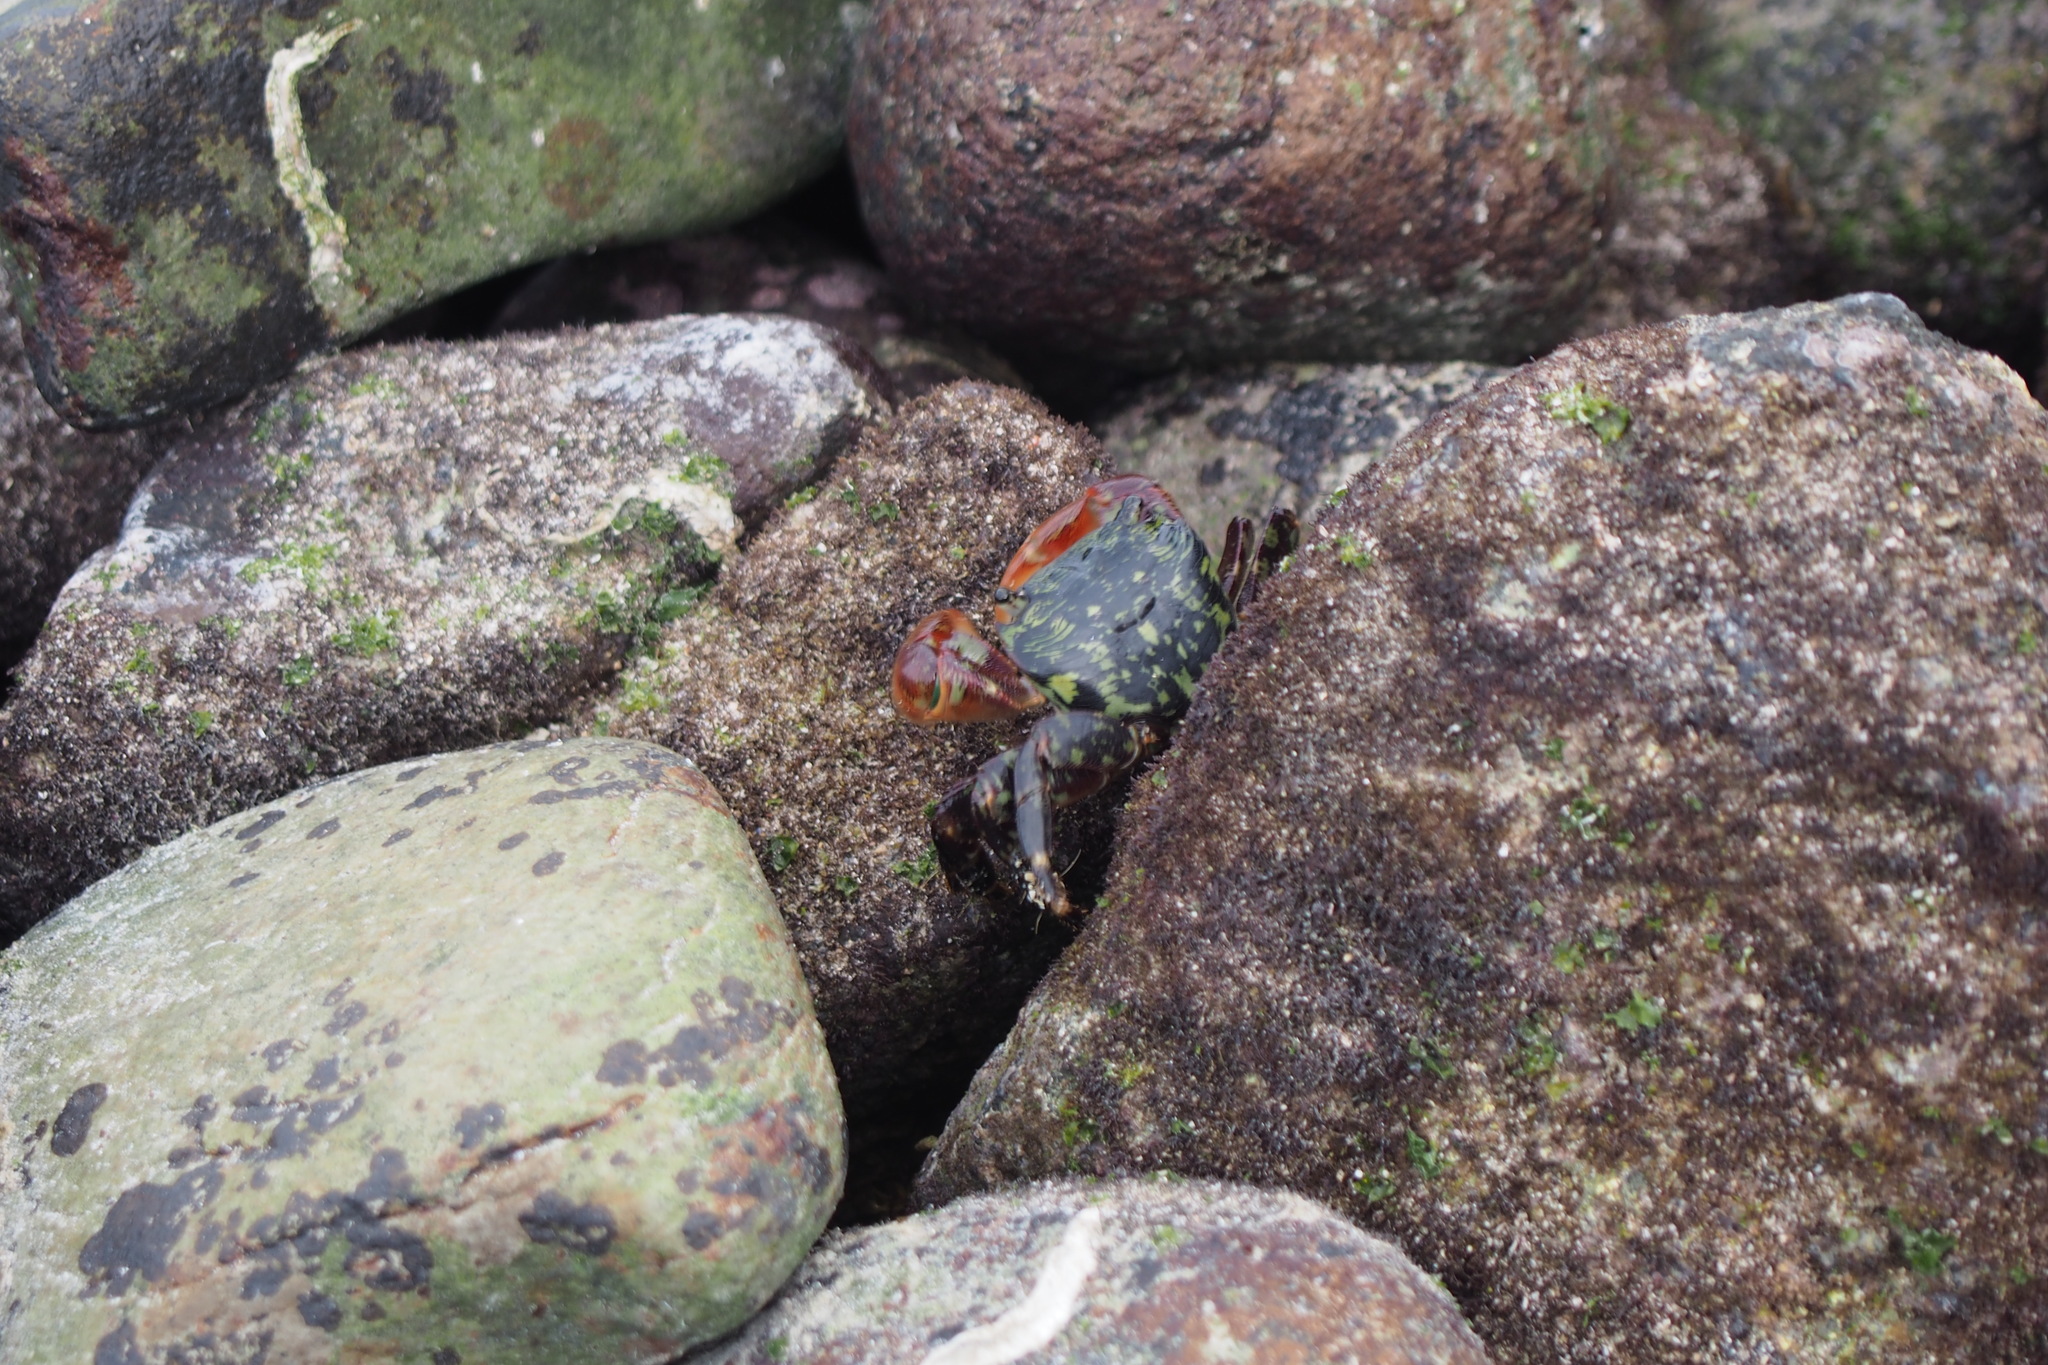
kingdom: Animalia
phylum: Arthropoda
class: Malacostraca
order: Decapoda
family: Grapsidae
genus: Pachygrapsus
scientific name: Pachygrapsus crassipes
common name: Striped shore crab
